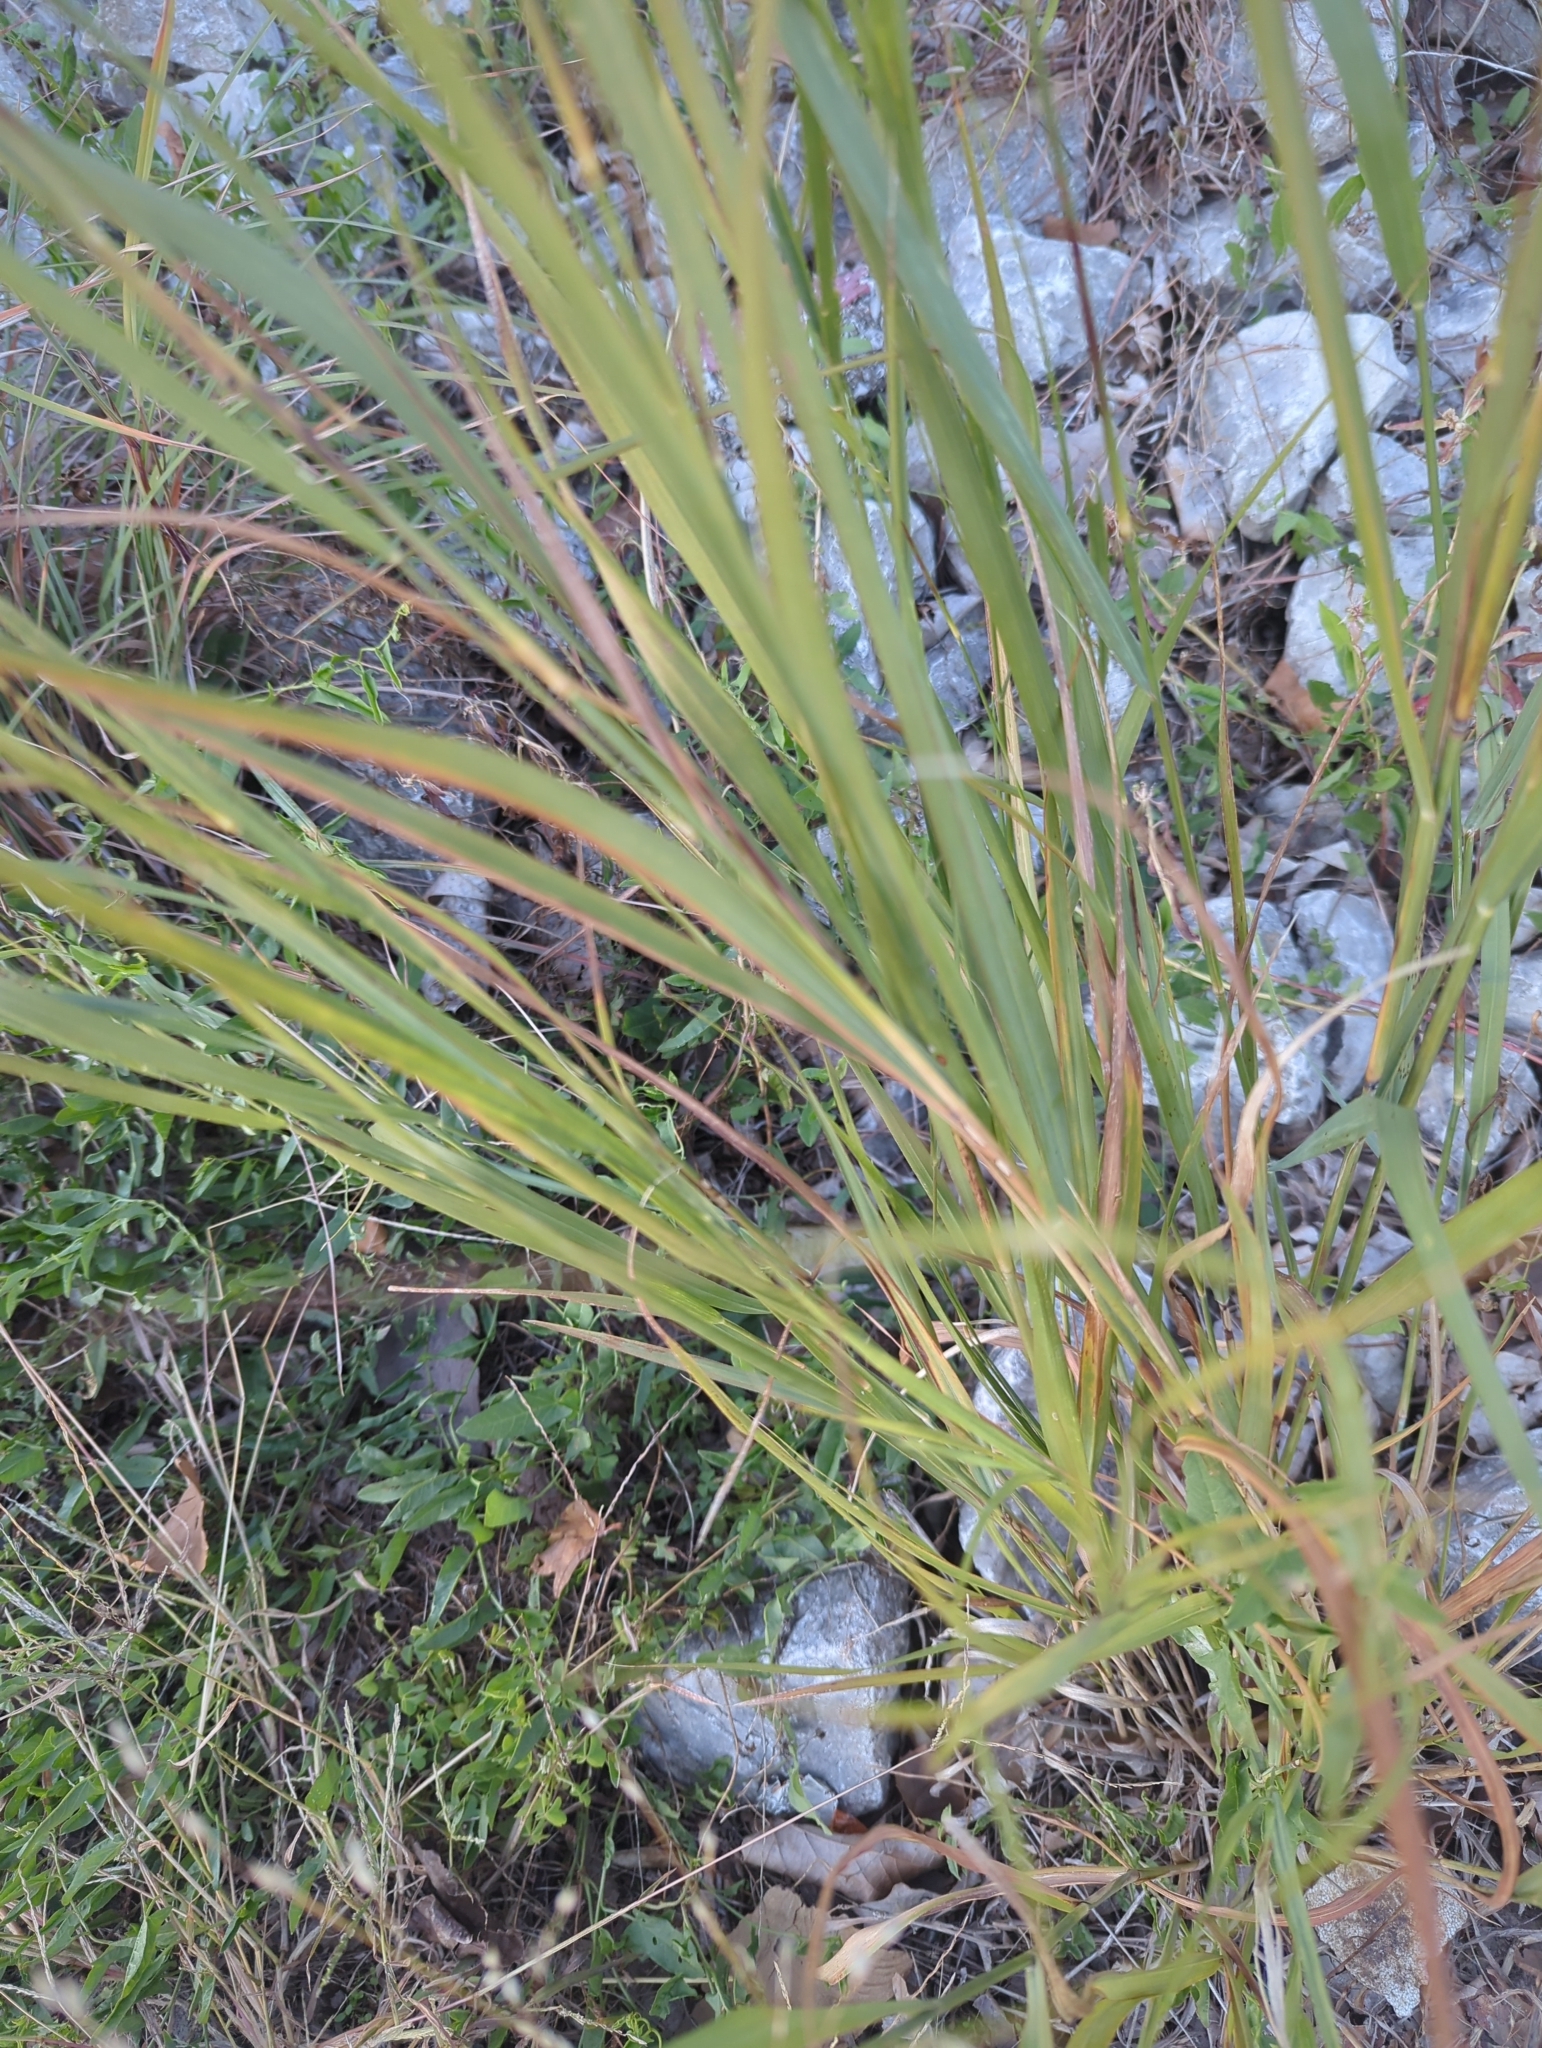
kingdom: Plantae
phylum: Tracheophyta
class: Liliopsida
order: Poales
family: Poaceae
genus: Panicum
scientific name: Panicum virgatum
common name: Switchgrass
